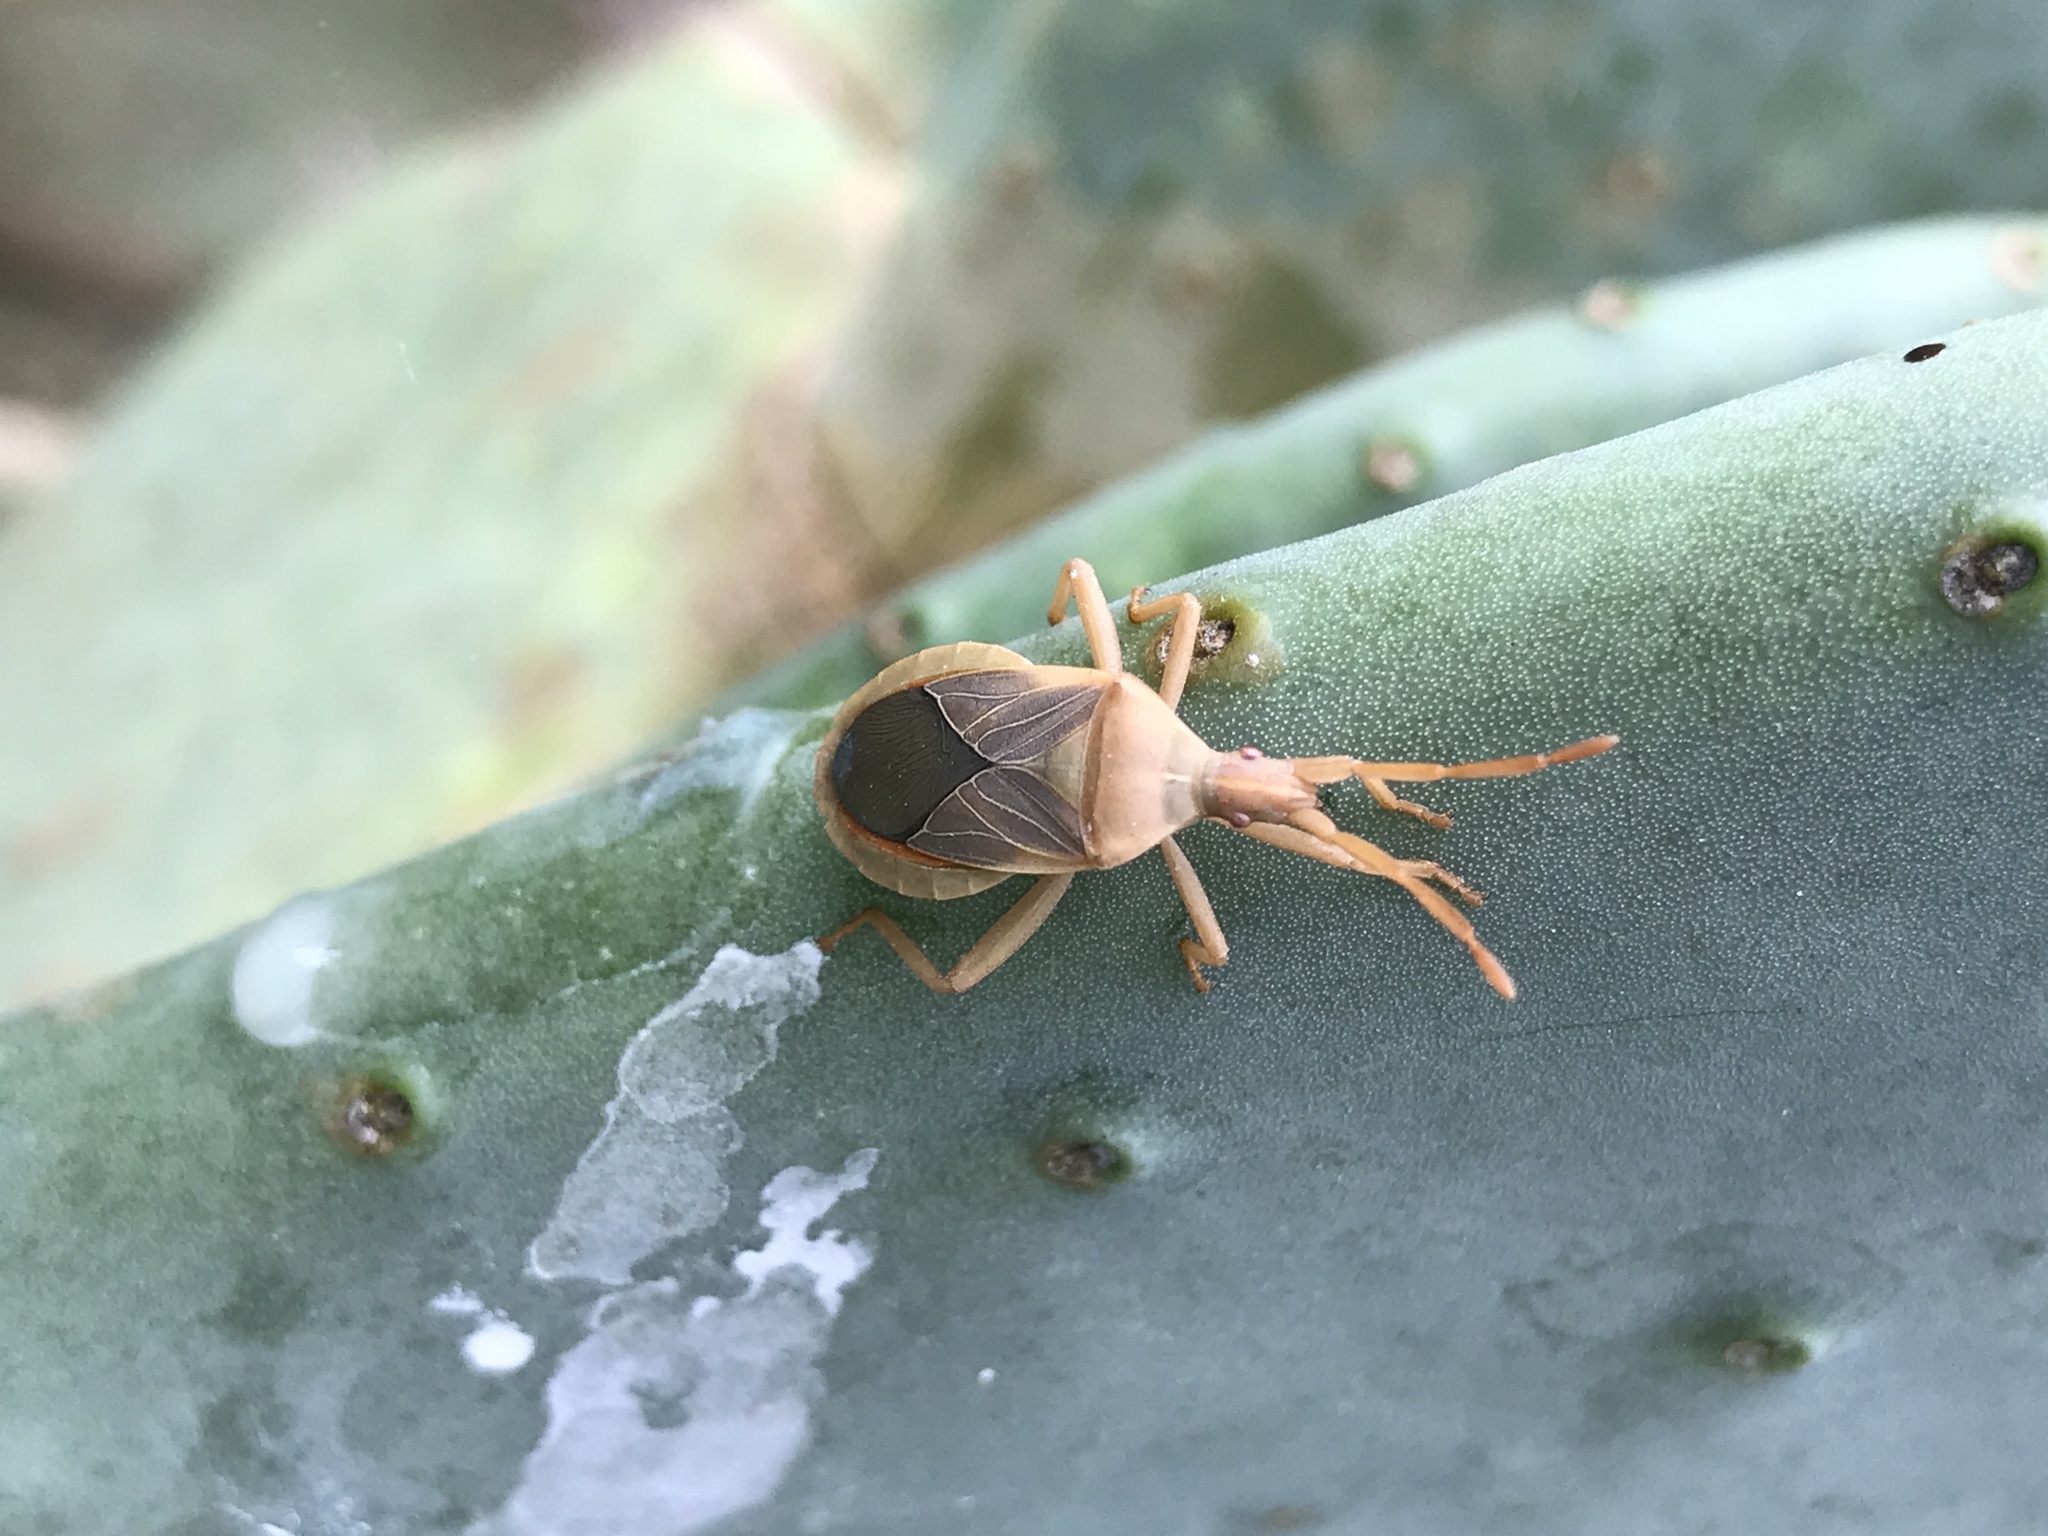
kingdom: Animalia
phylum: Arthropoda
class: Insecta
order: Hemiptera
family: Coreidae
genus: Chelinidea
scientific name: Chelinidea vittiger
